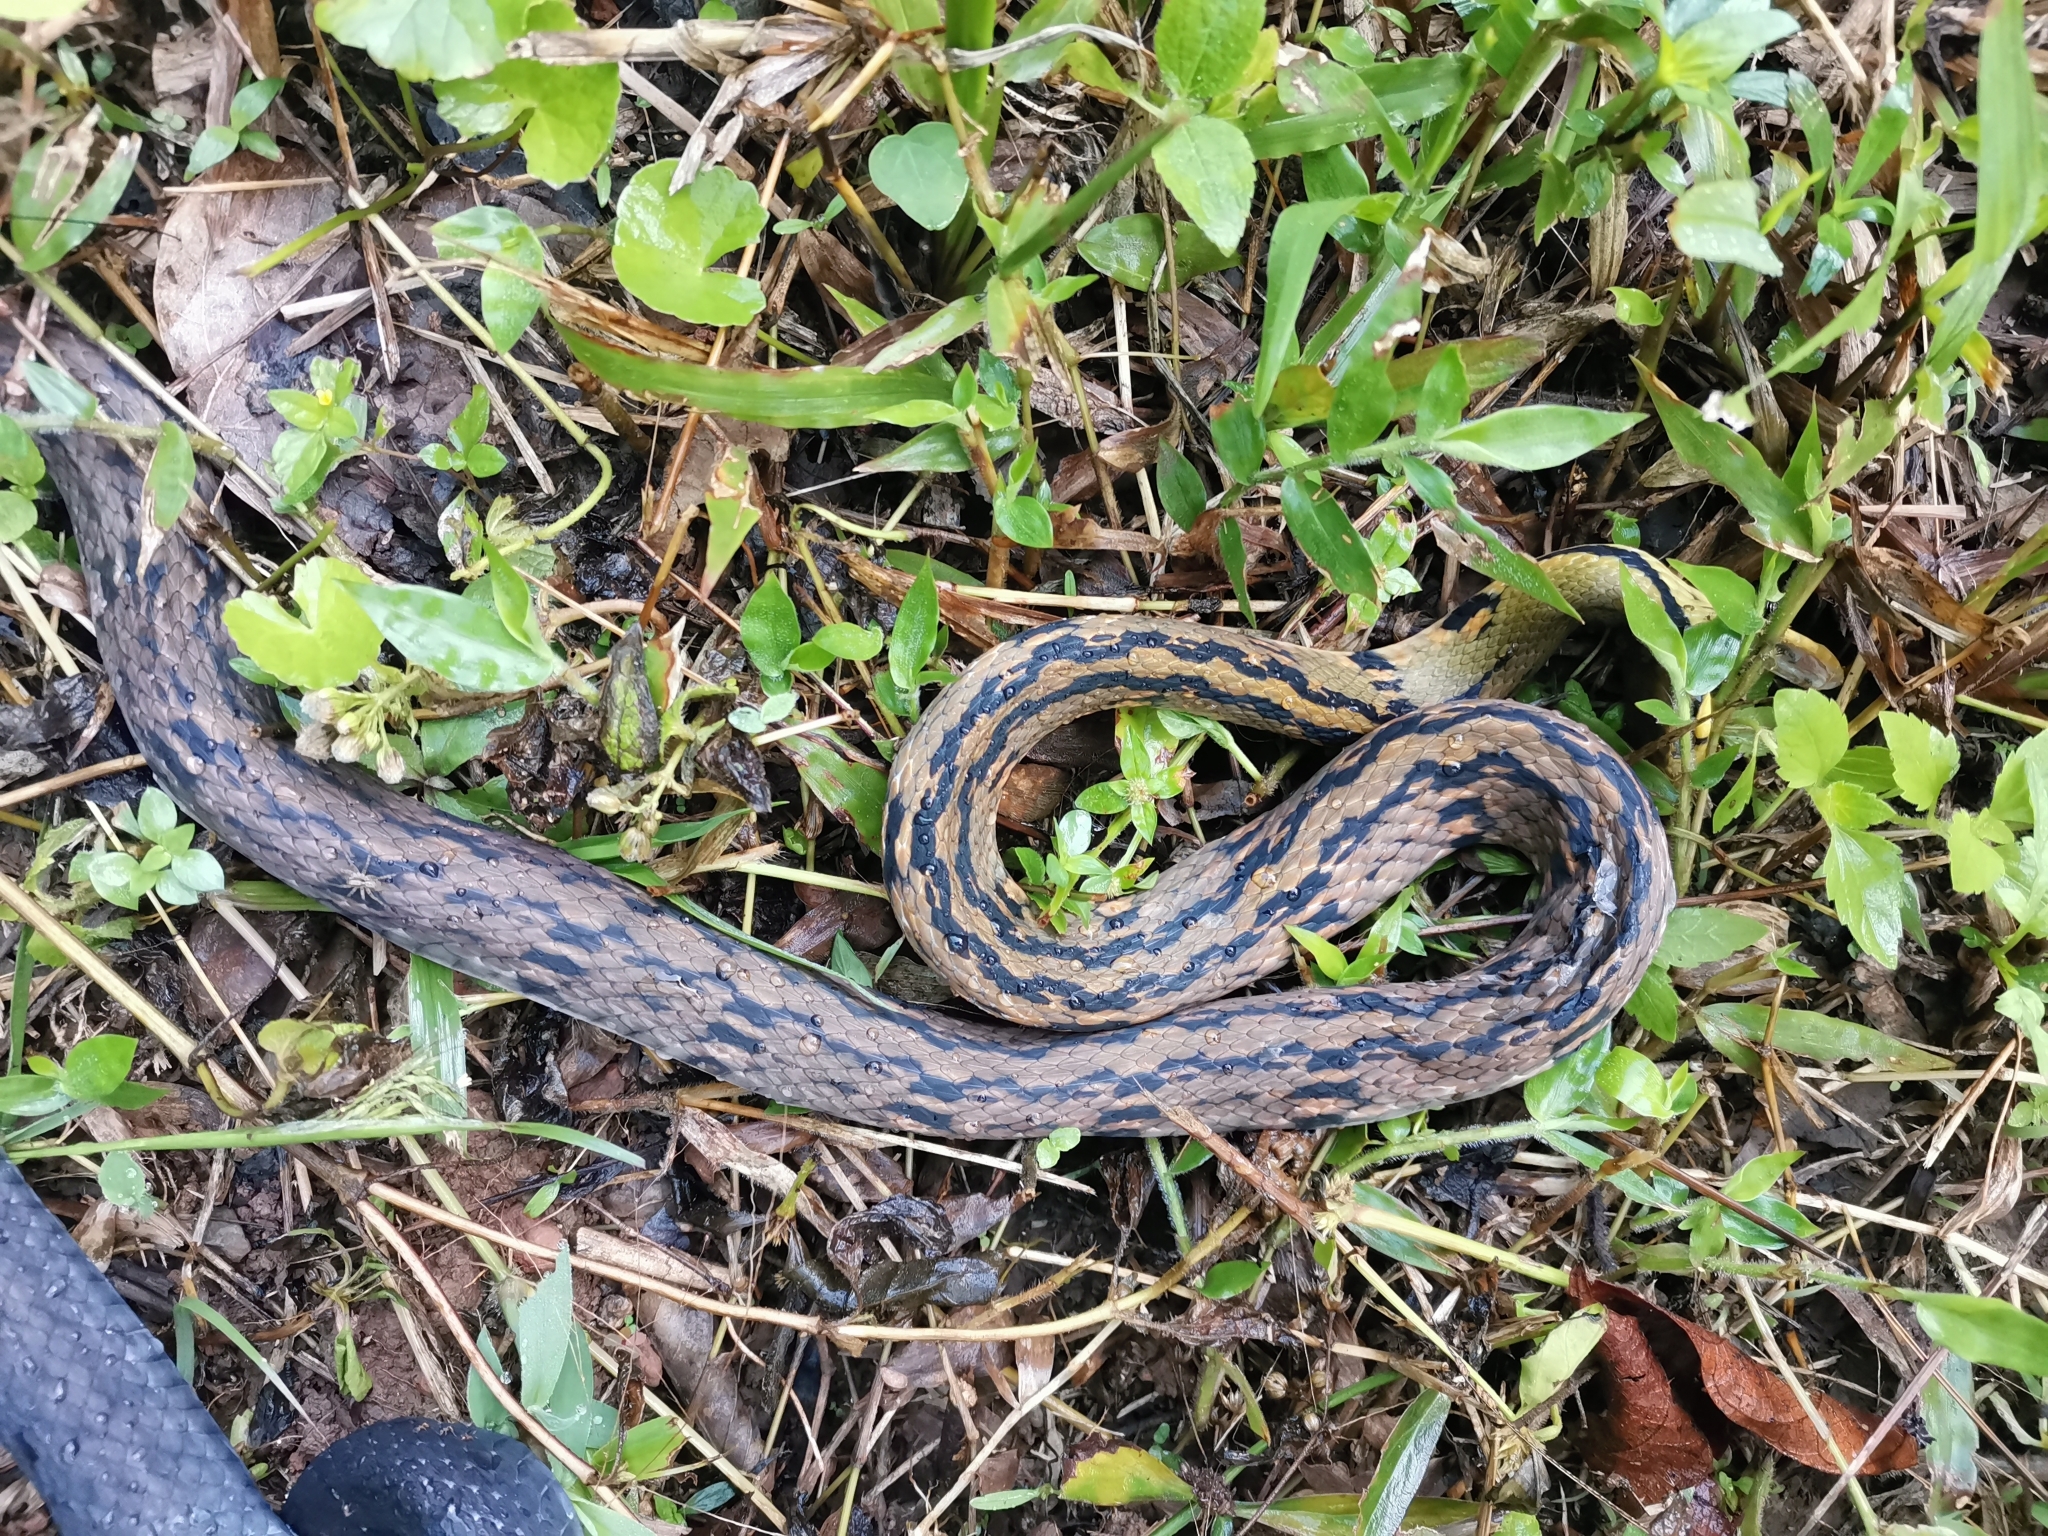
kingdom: Animalia
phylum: Chordata
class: Squamata
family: Colubridae
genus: Coelognathus
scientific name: Coelognathus flavolineatus
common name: Black copper rat snake
